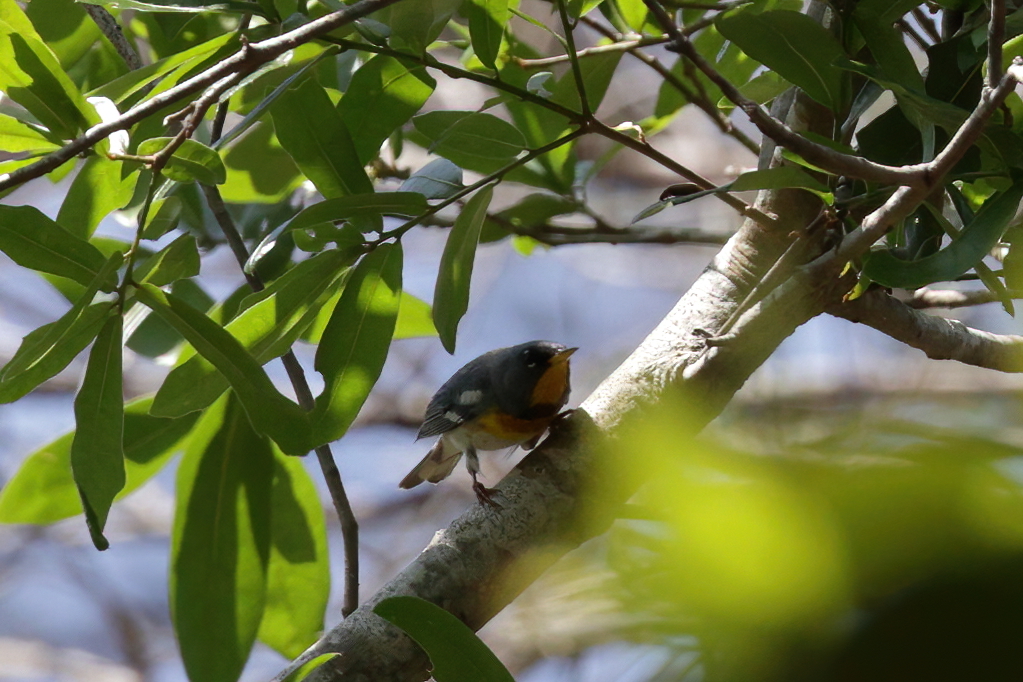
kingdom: Animalia
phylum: Chordata
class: Aves
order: Passeriformes
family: Parulidae
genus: Setophaga
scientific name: Setophaga americana
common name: Northern parula
